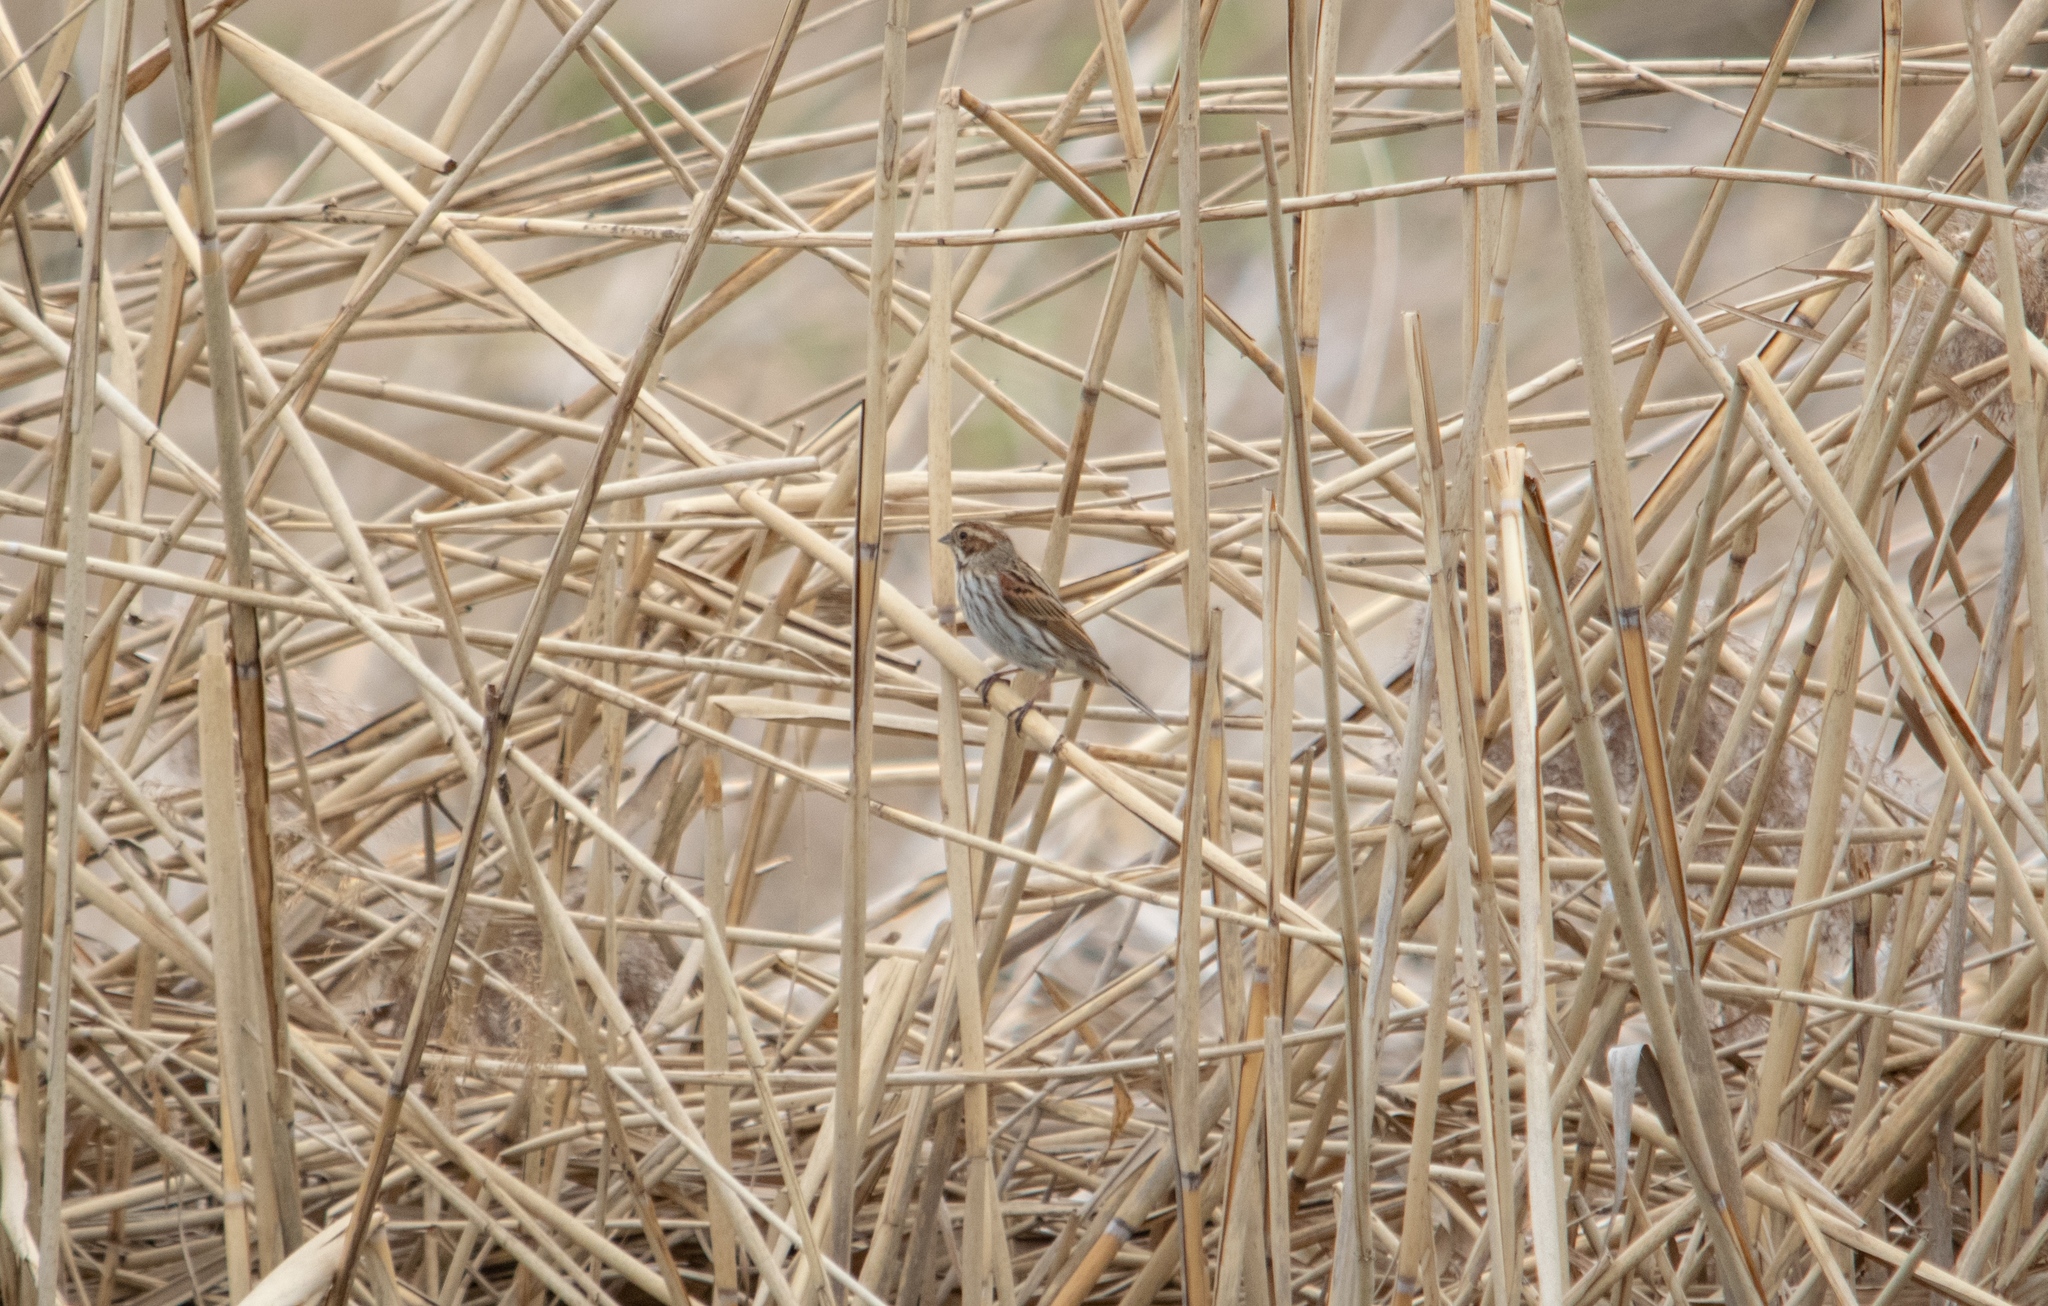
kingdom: Animalia
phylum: Chordata
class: Aves
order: Passeriformes
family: Emberizidae
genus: Emberiza
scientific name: Emberiza schoeniclus
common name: Reed bunting
